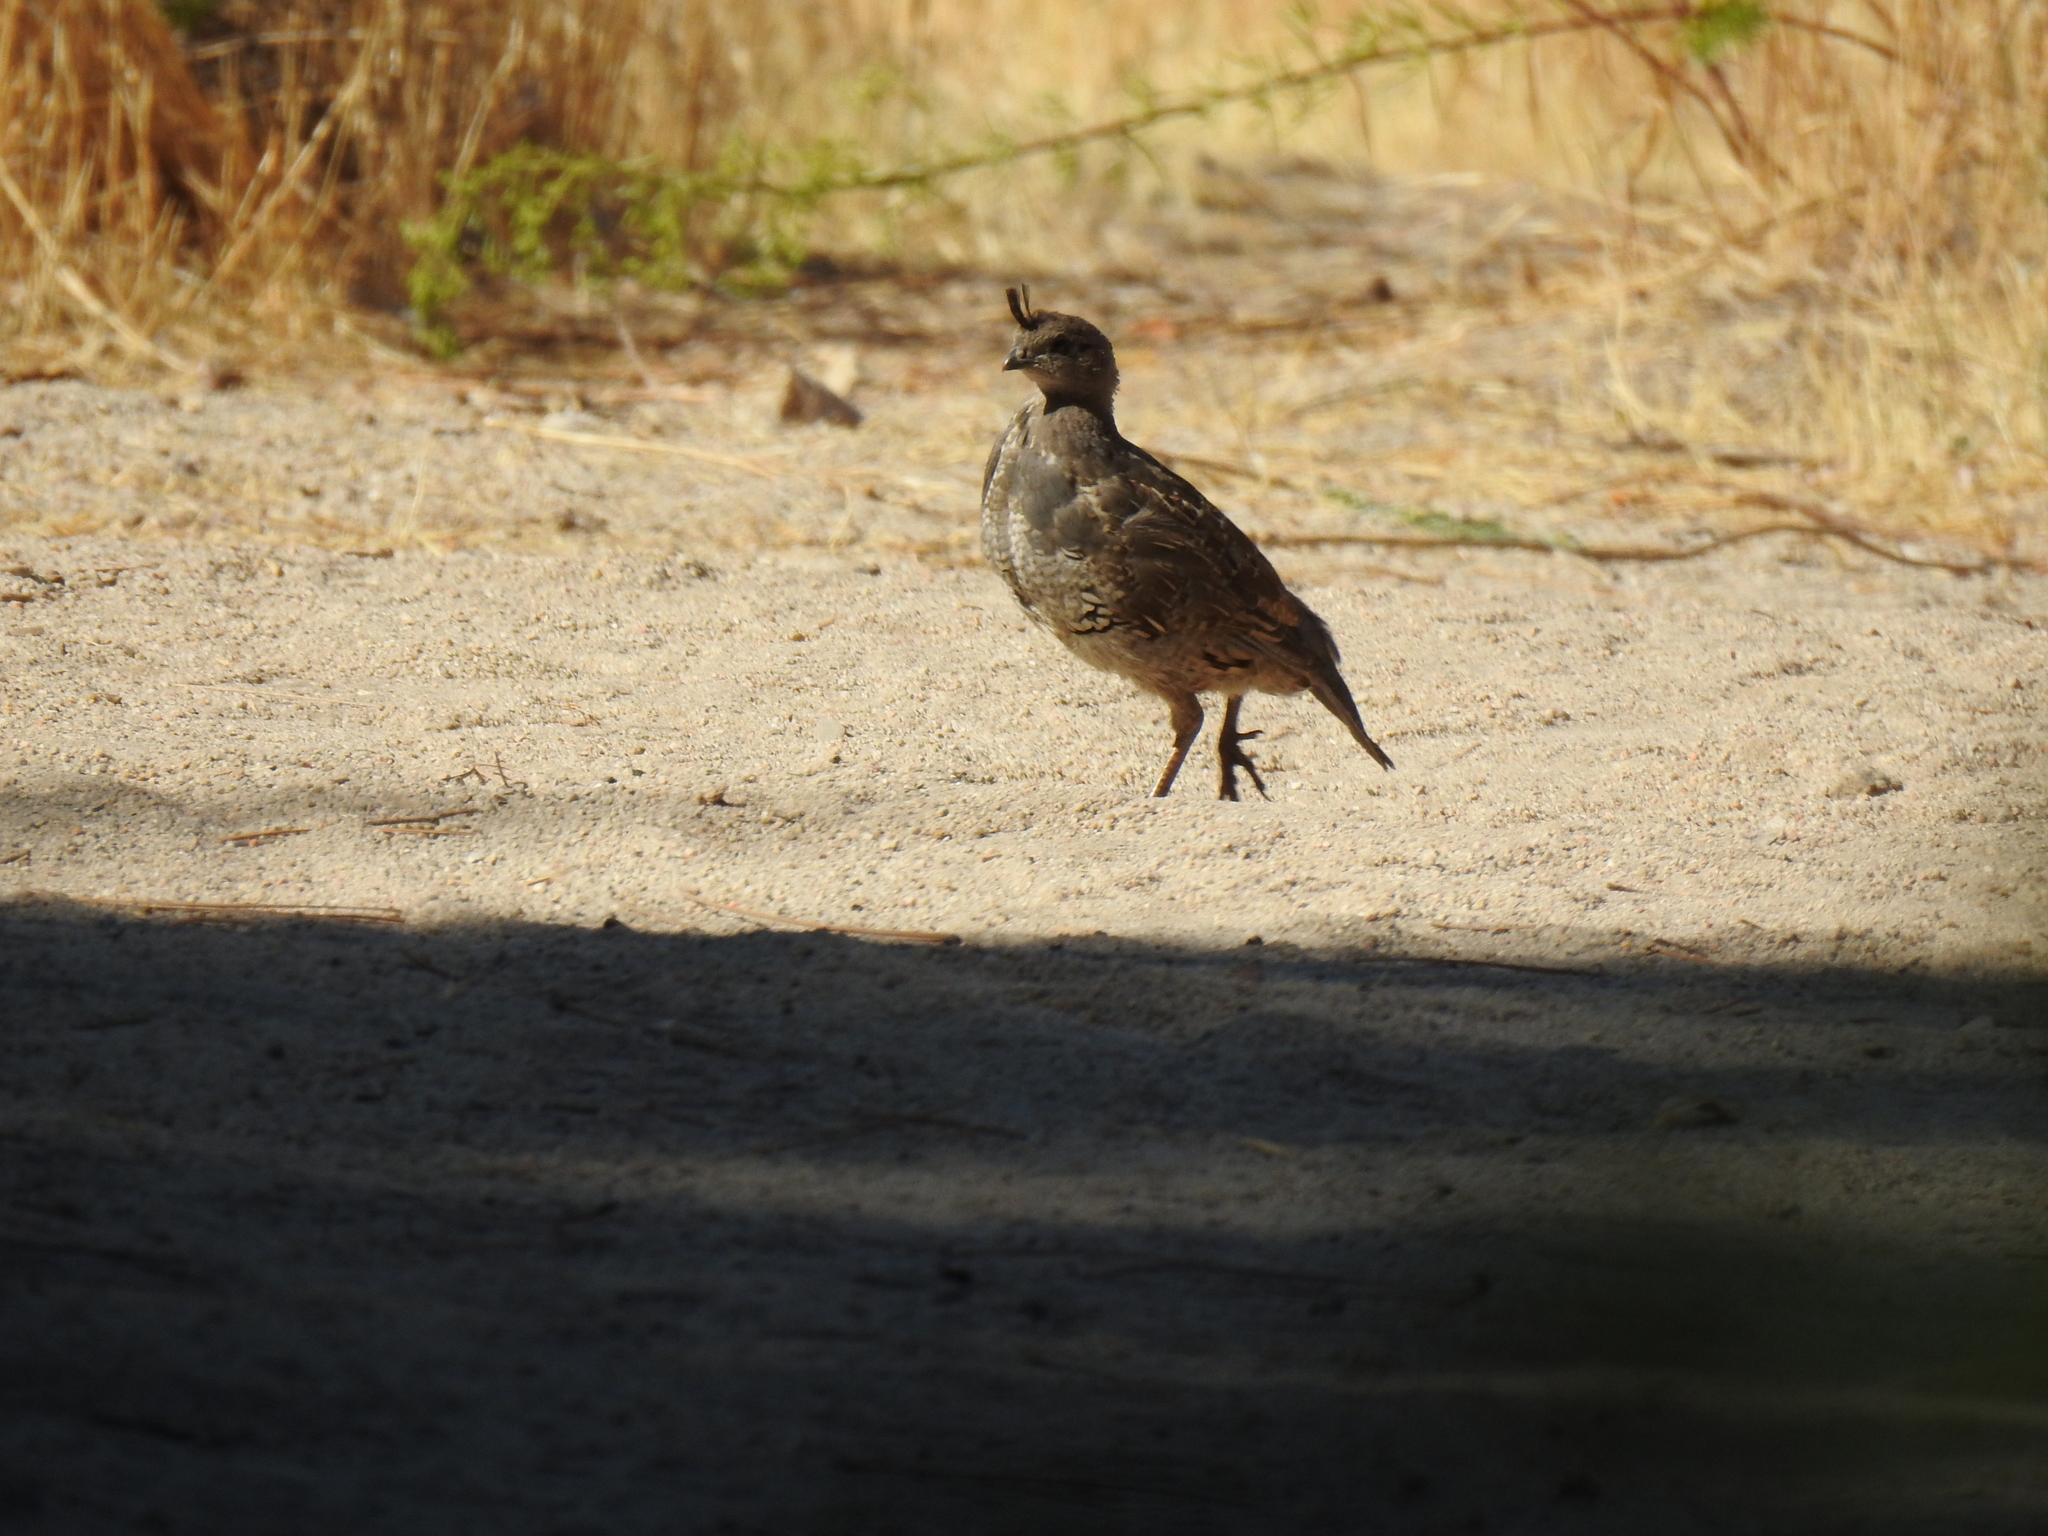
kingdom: Animalia
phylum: Chordata
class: Aves
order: Galliformes
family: Odontophoridae
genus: Callipepla
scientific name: Callipepla californica
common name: California quail
